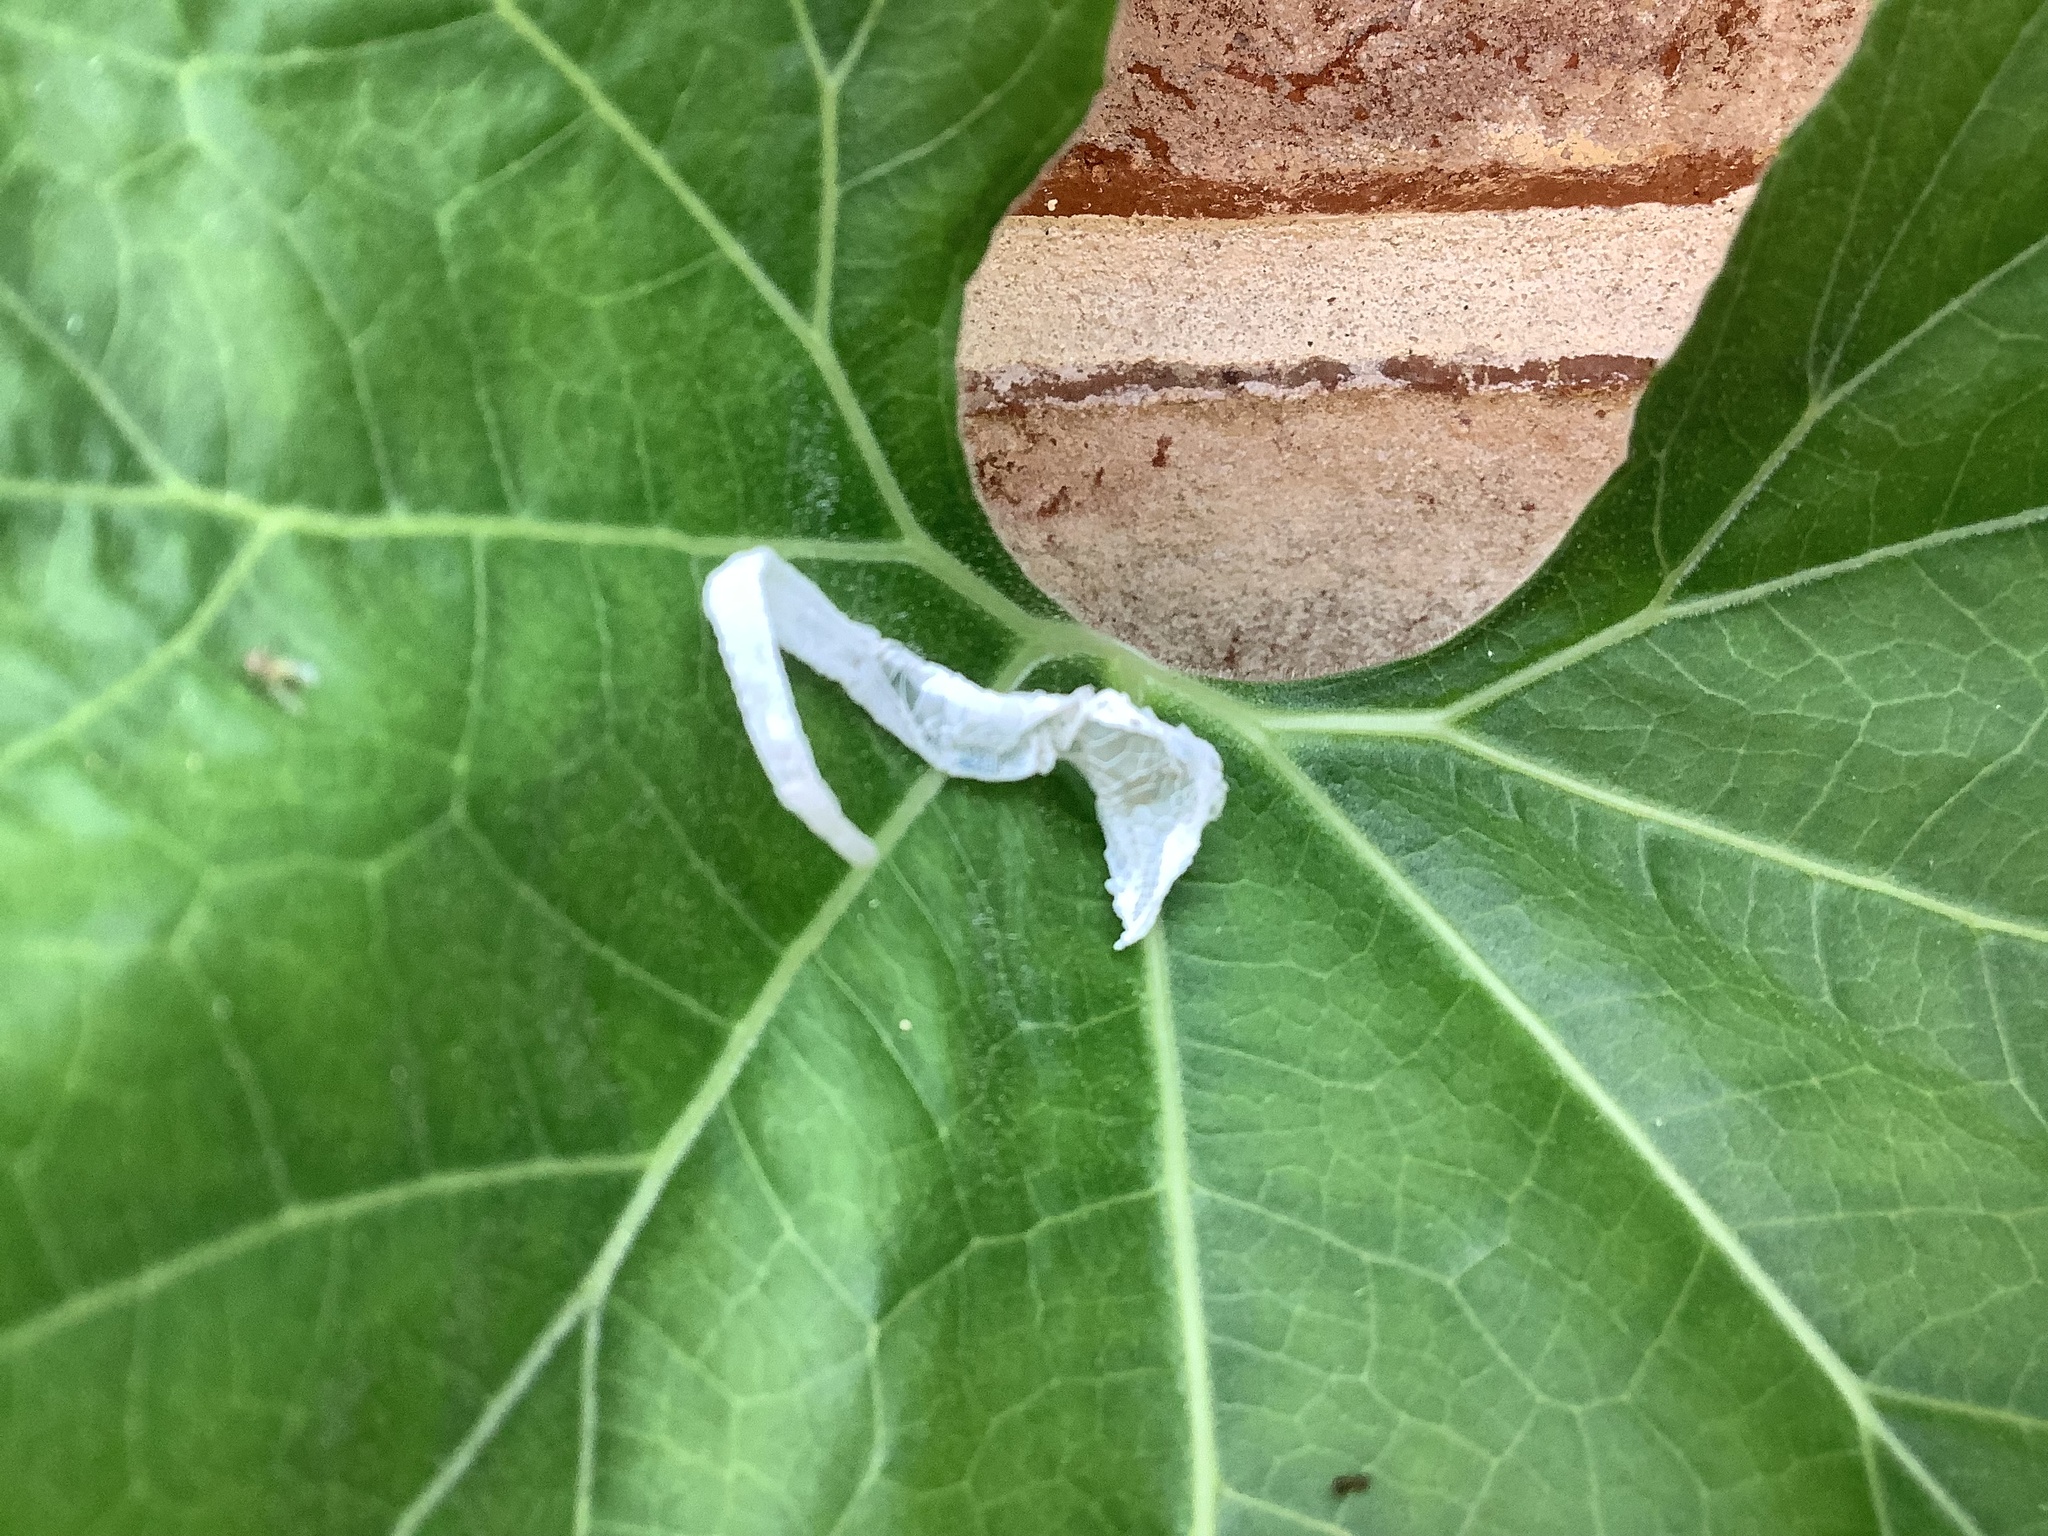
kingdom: Animalia
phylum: Chordata
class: Squamata
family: Dactyloidae
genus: Anolis
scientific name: Anolis carolinensis
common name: Green anole
